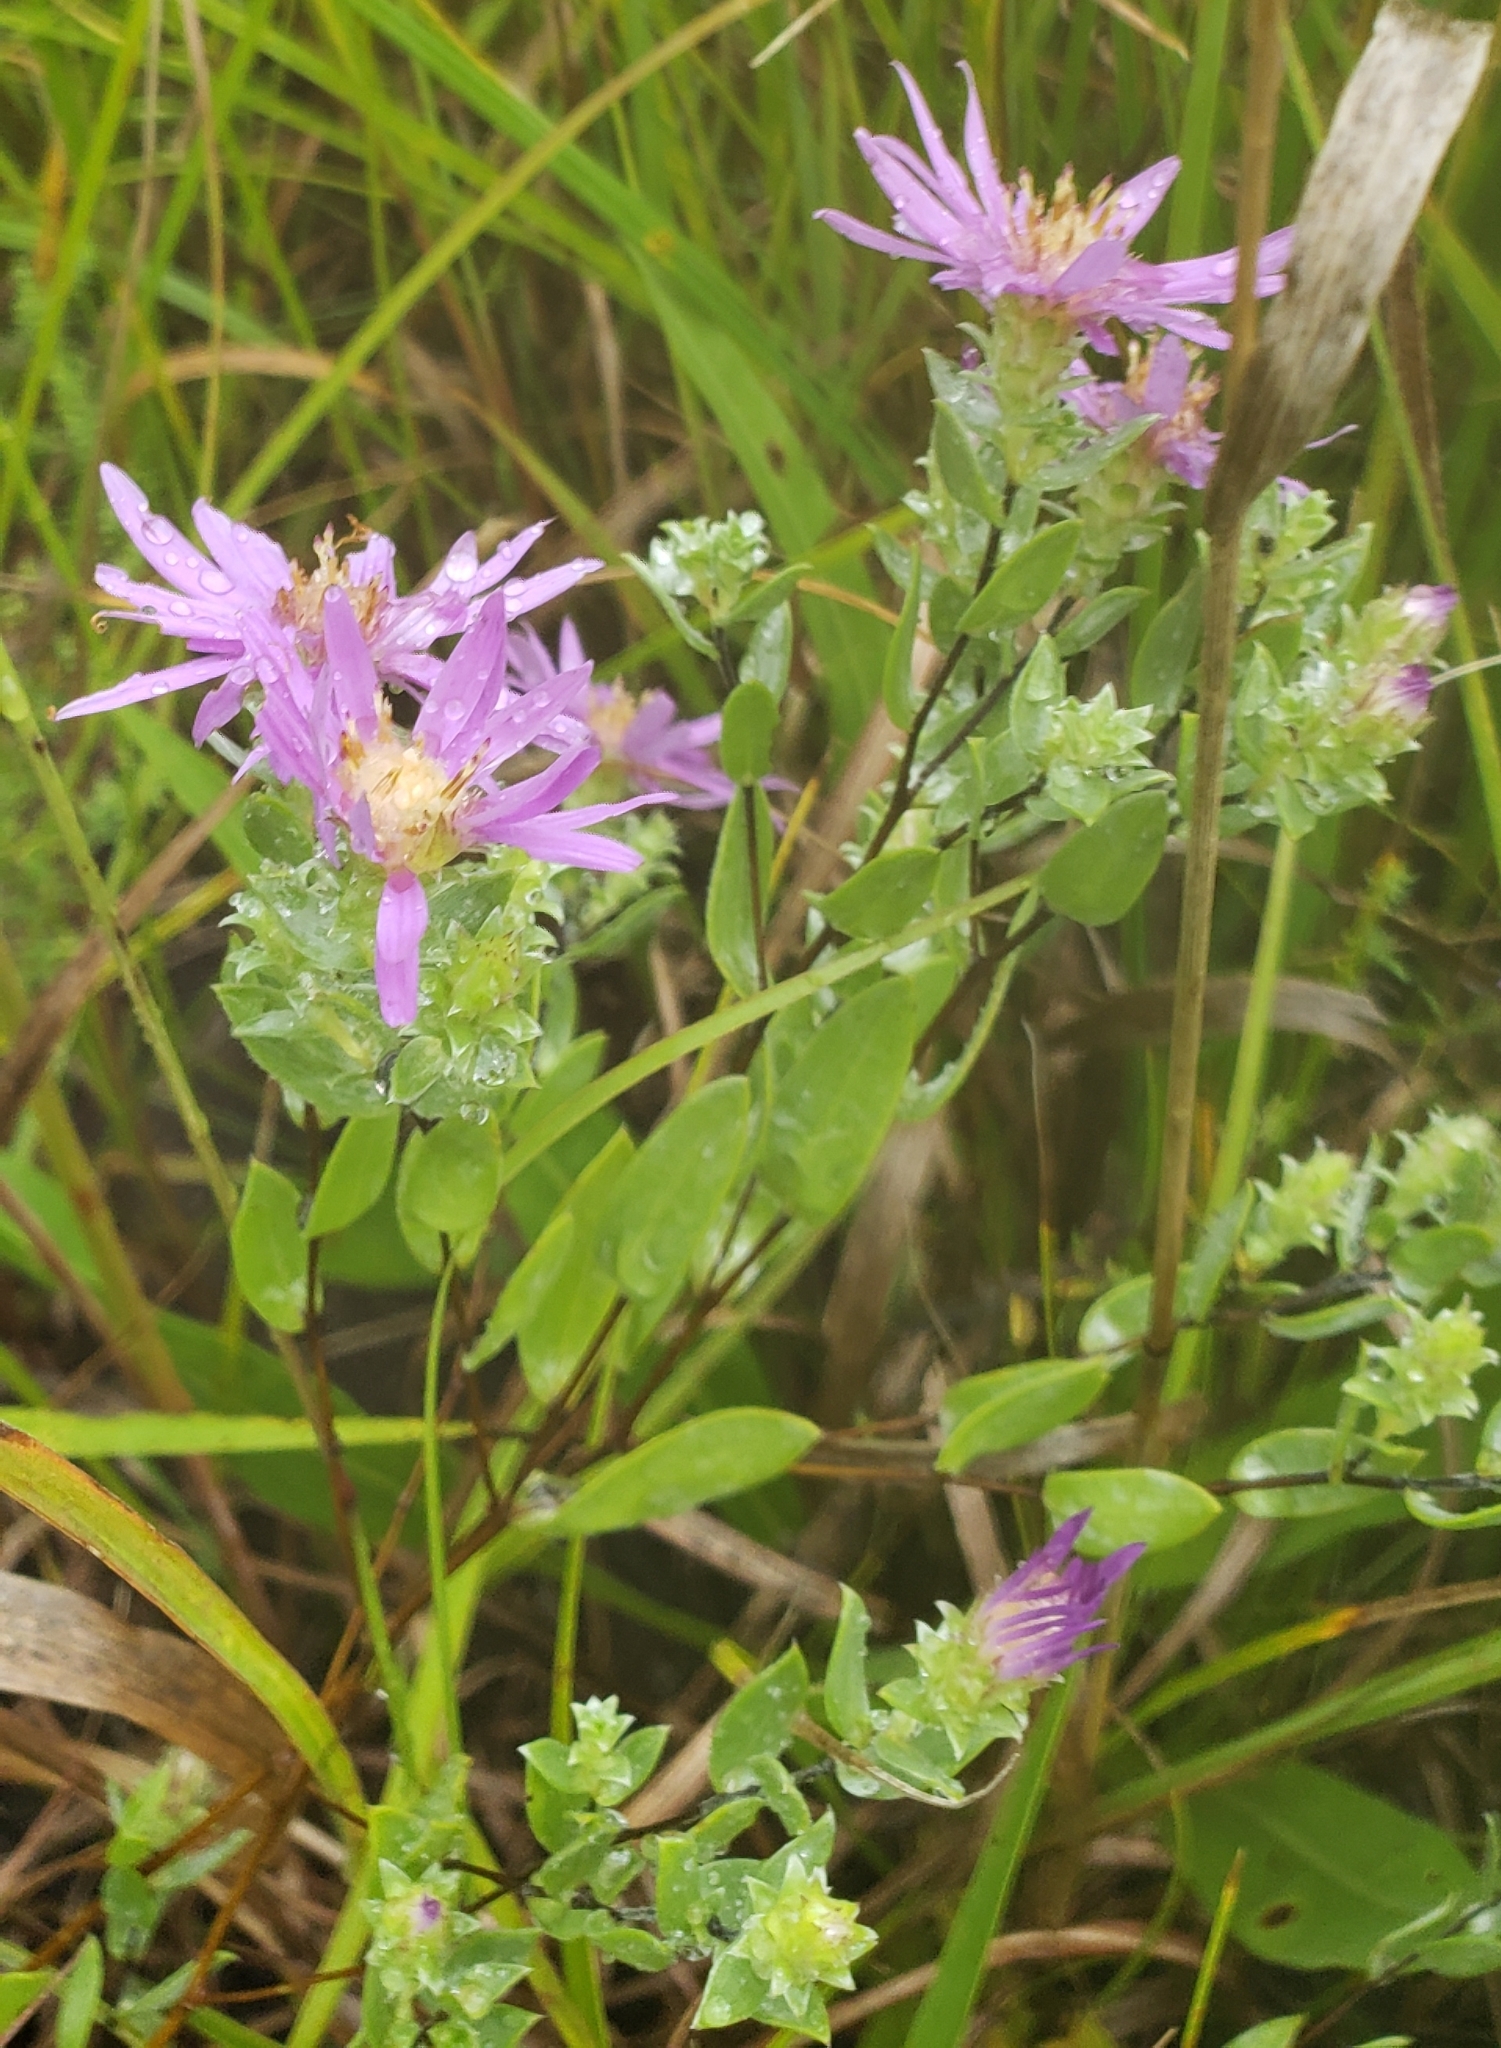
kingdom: Plantae
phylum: Tracheophyta
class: Magnoliopsida
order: Asterales
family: Asteraceae
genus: Symphyotrichum
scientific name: Symphyotrichum sericeum
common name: Silky aster
